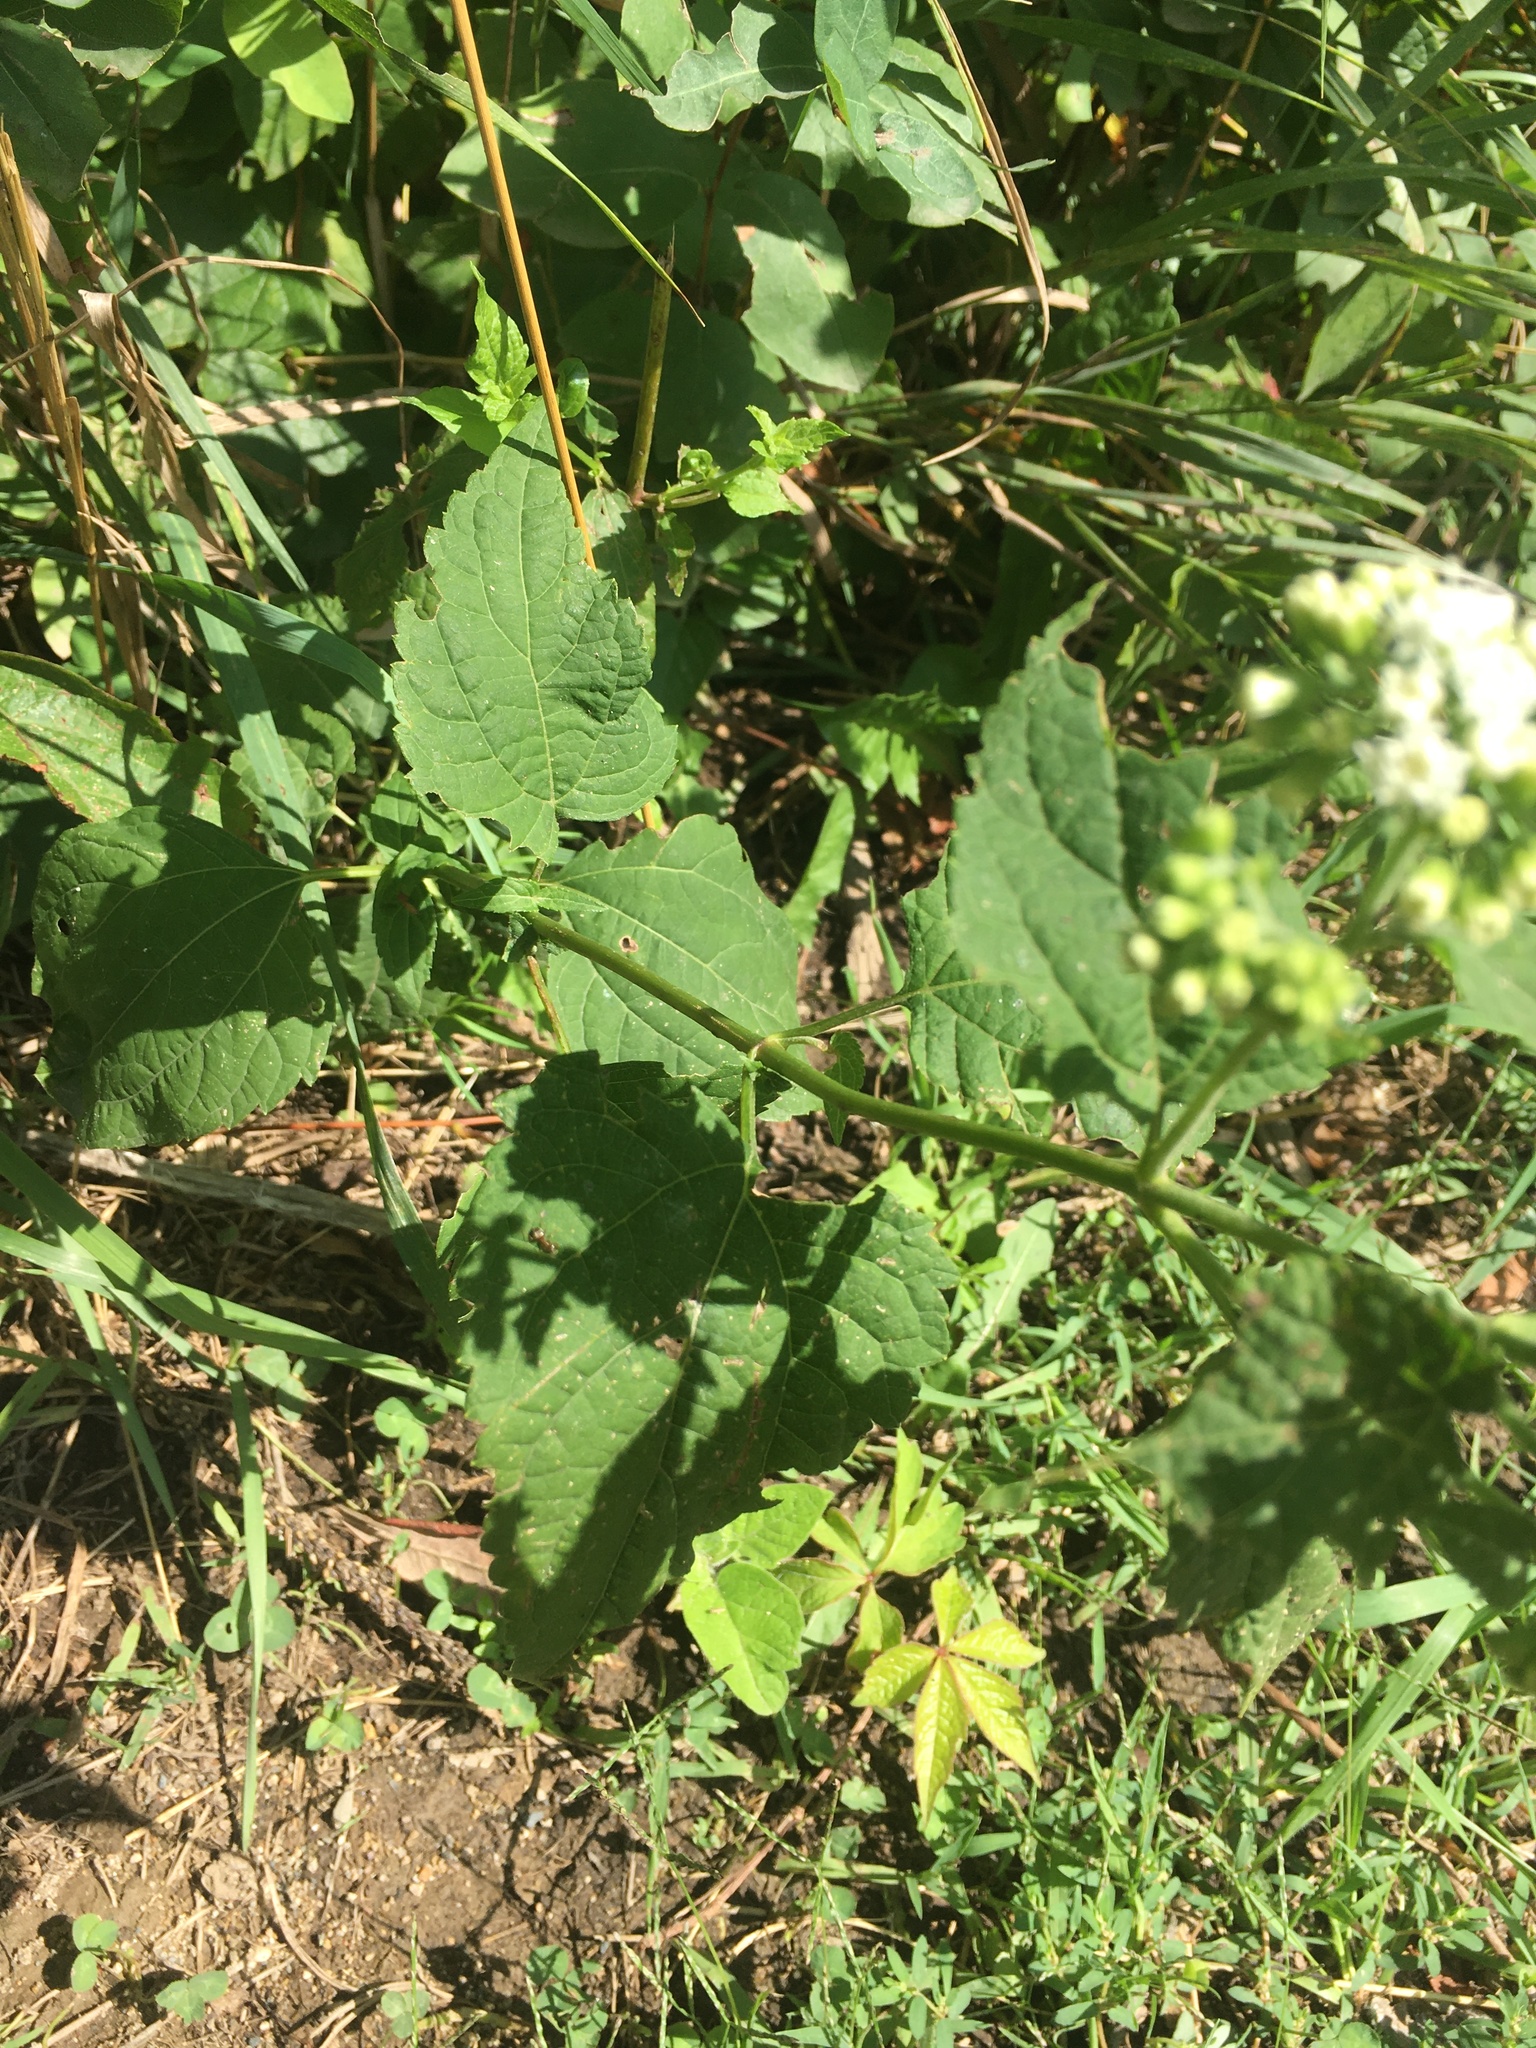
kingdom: Plantae
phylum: Tracheophyta
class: Magnoliopsida
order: Asterales
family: Asteraceae
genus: Ageratina
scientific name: Ageratina altissima
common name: White snakeroot
